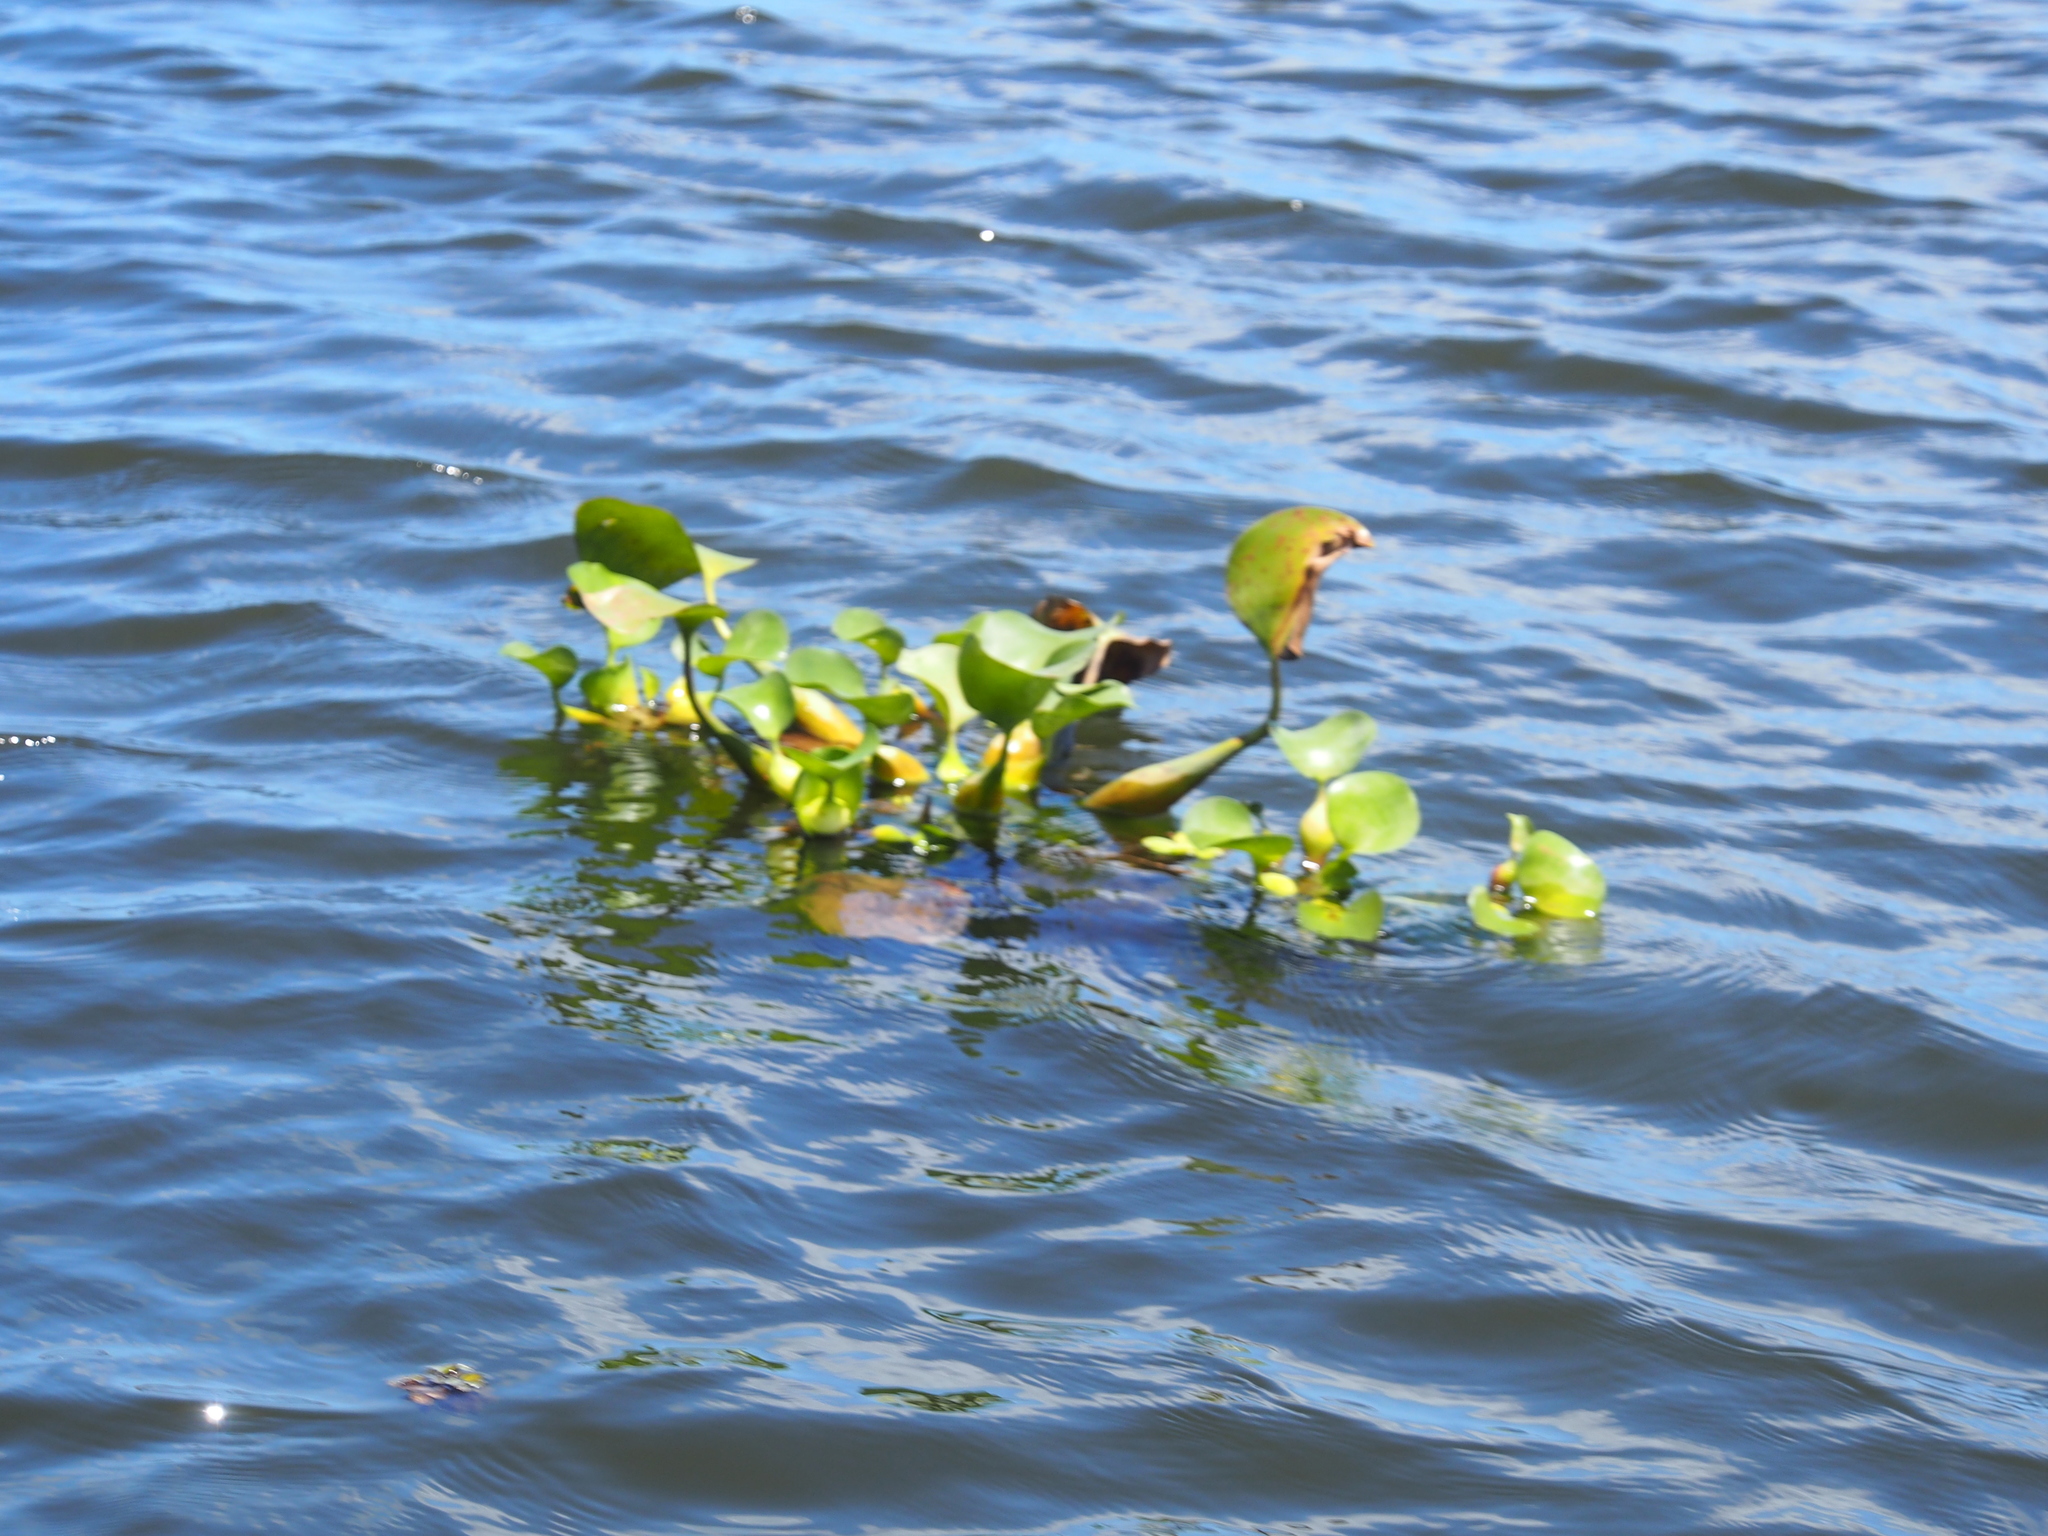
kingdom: Plantae
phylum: Tracheophyta
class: Liliopsida
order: Commelinales
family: Pontederiaceae
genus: Pontederia
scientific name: Pontederia crassipes
